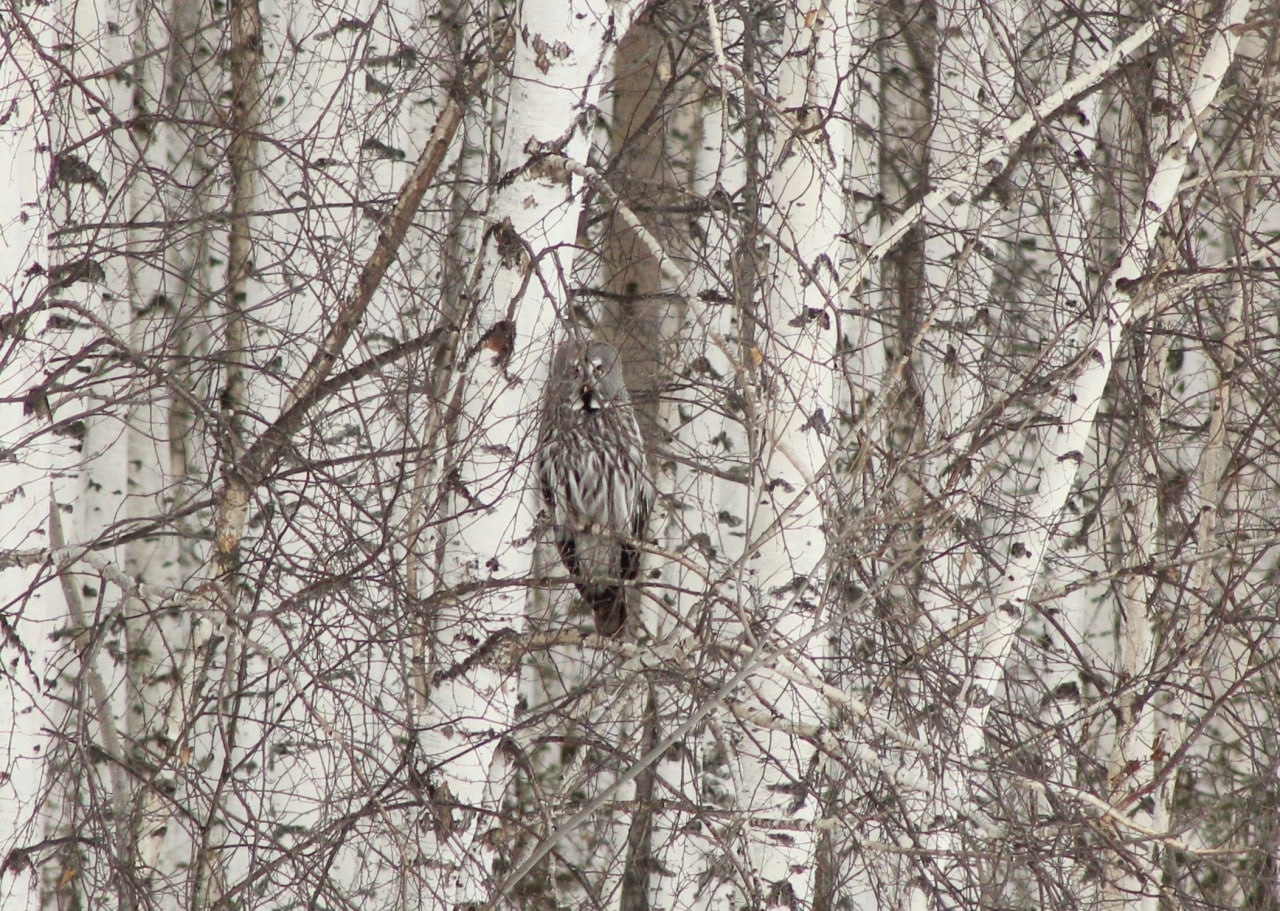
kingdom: Animalia
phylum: Chordata
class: Aves
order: Strigiformes
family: Strigidae
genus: Strix
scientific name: Strix nebulosa
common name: Great grey owl
